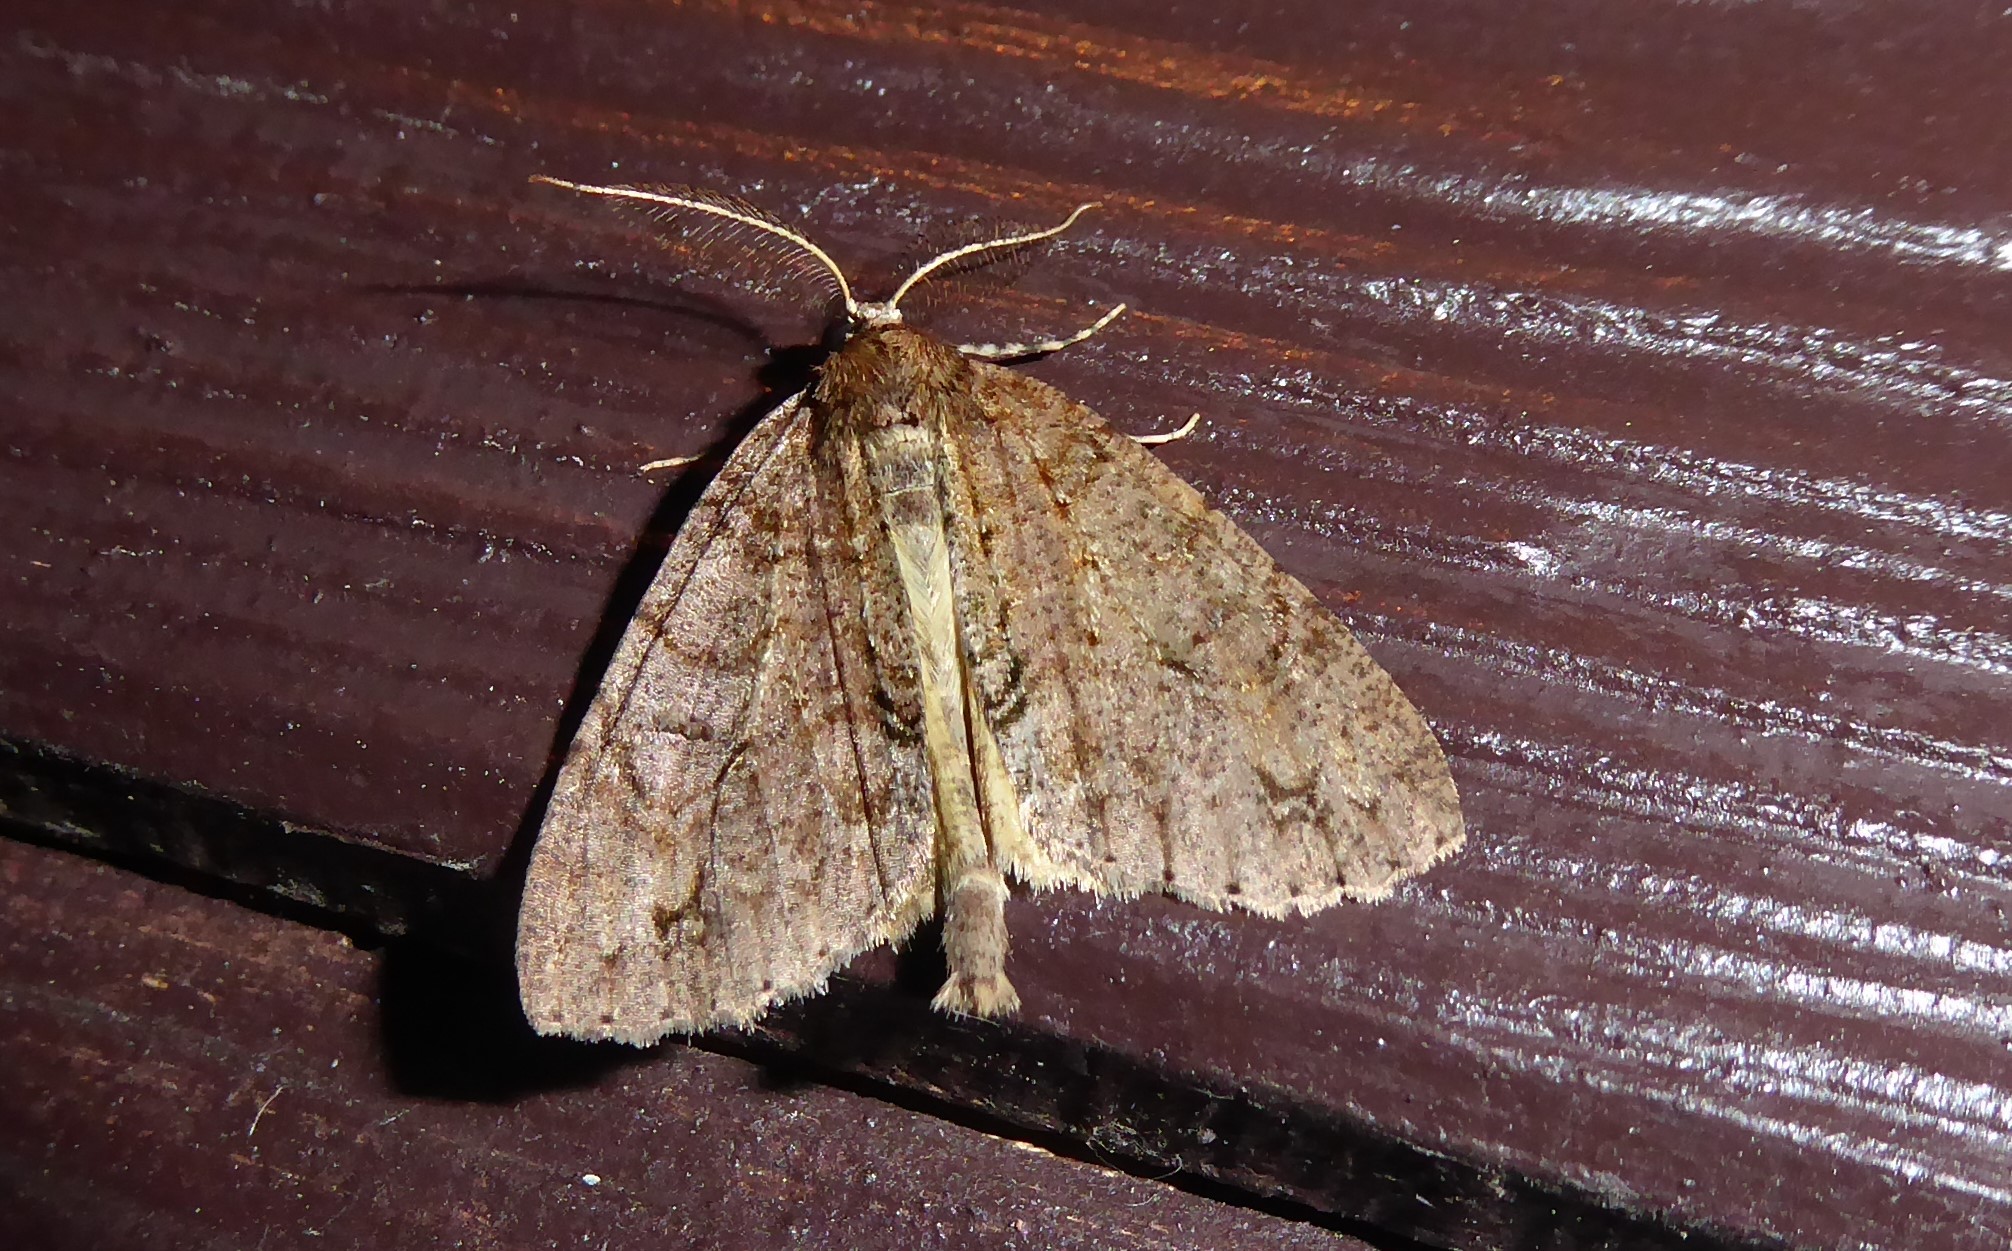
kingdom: Animalia
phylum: Arthropoda
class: Insecta
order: Lepidoptera
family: Geometridae
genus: Pseudocoremia
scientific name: Pseudocoremia suavis
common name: Common forest looper
